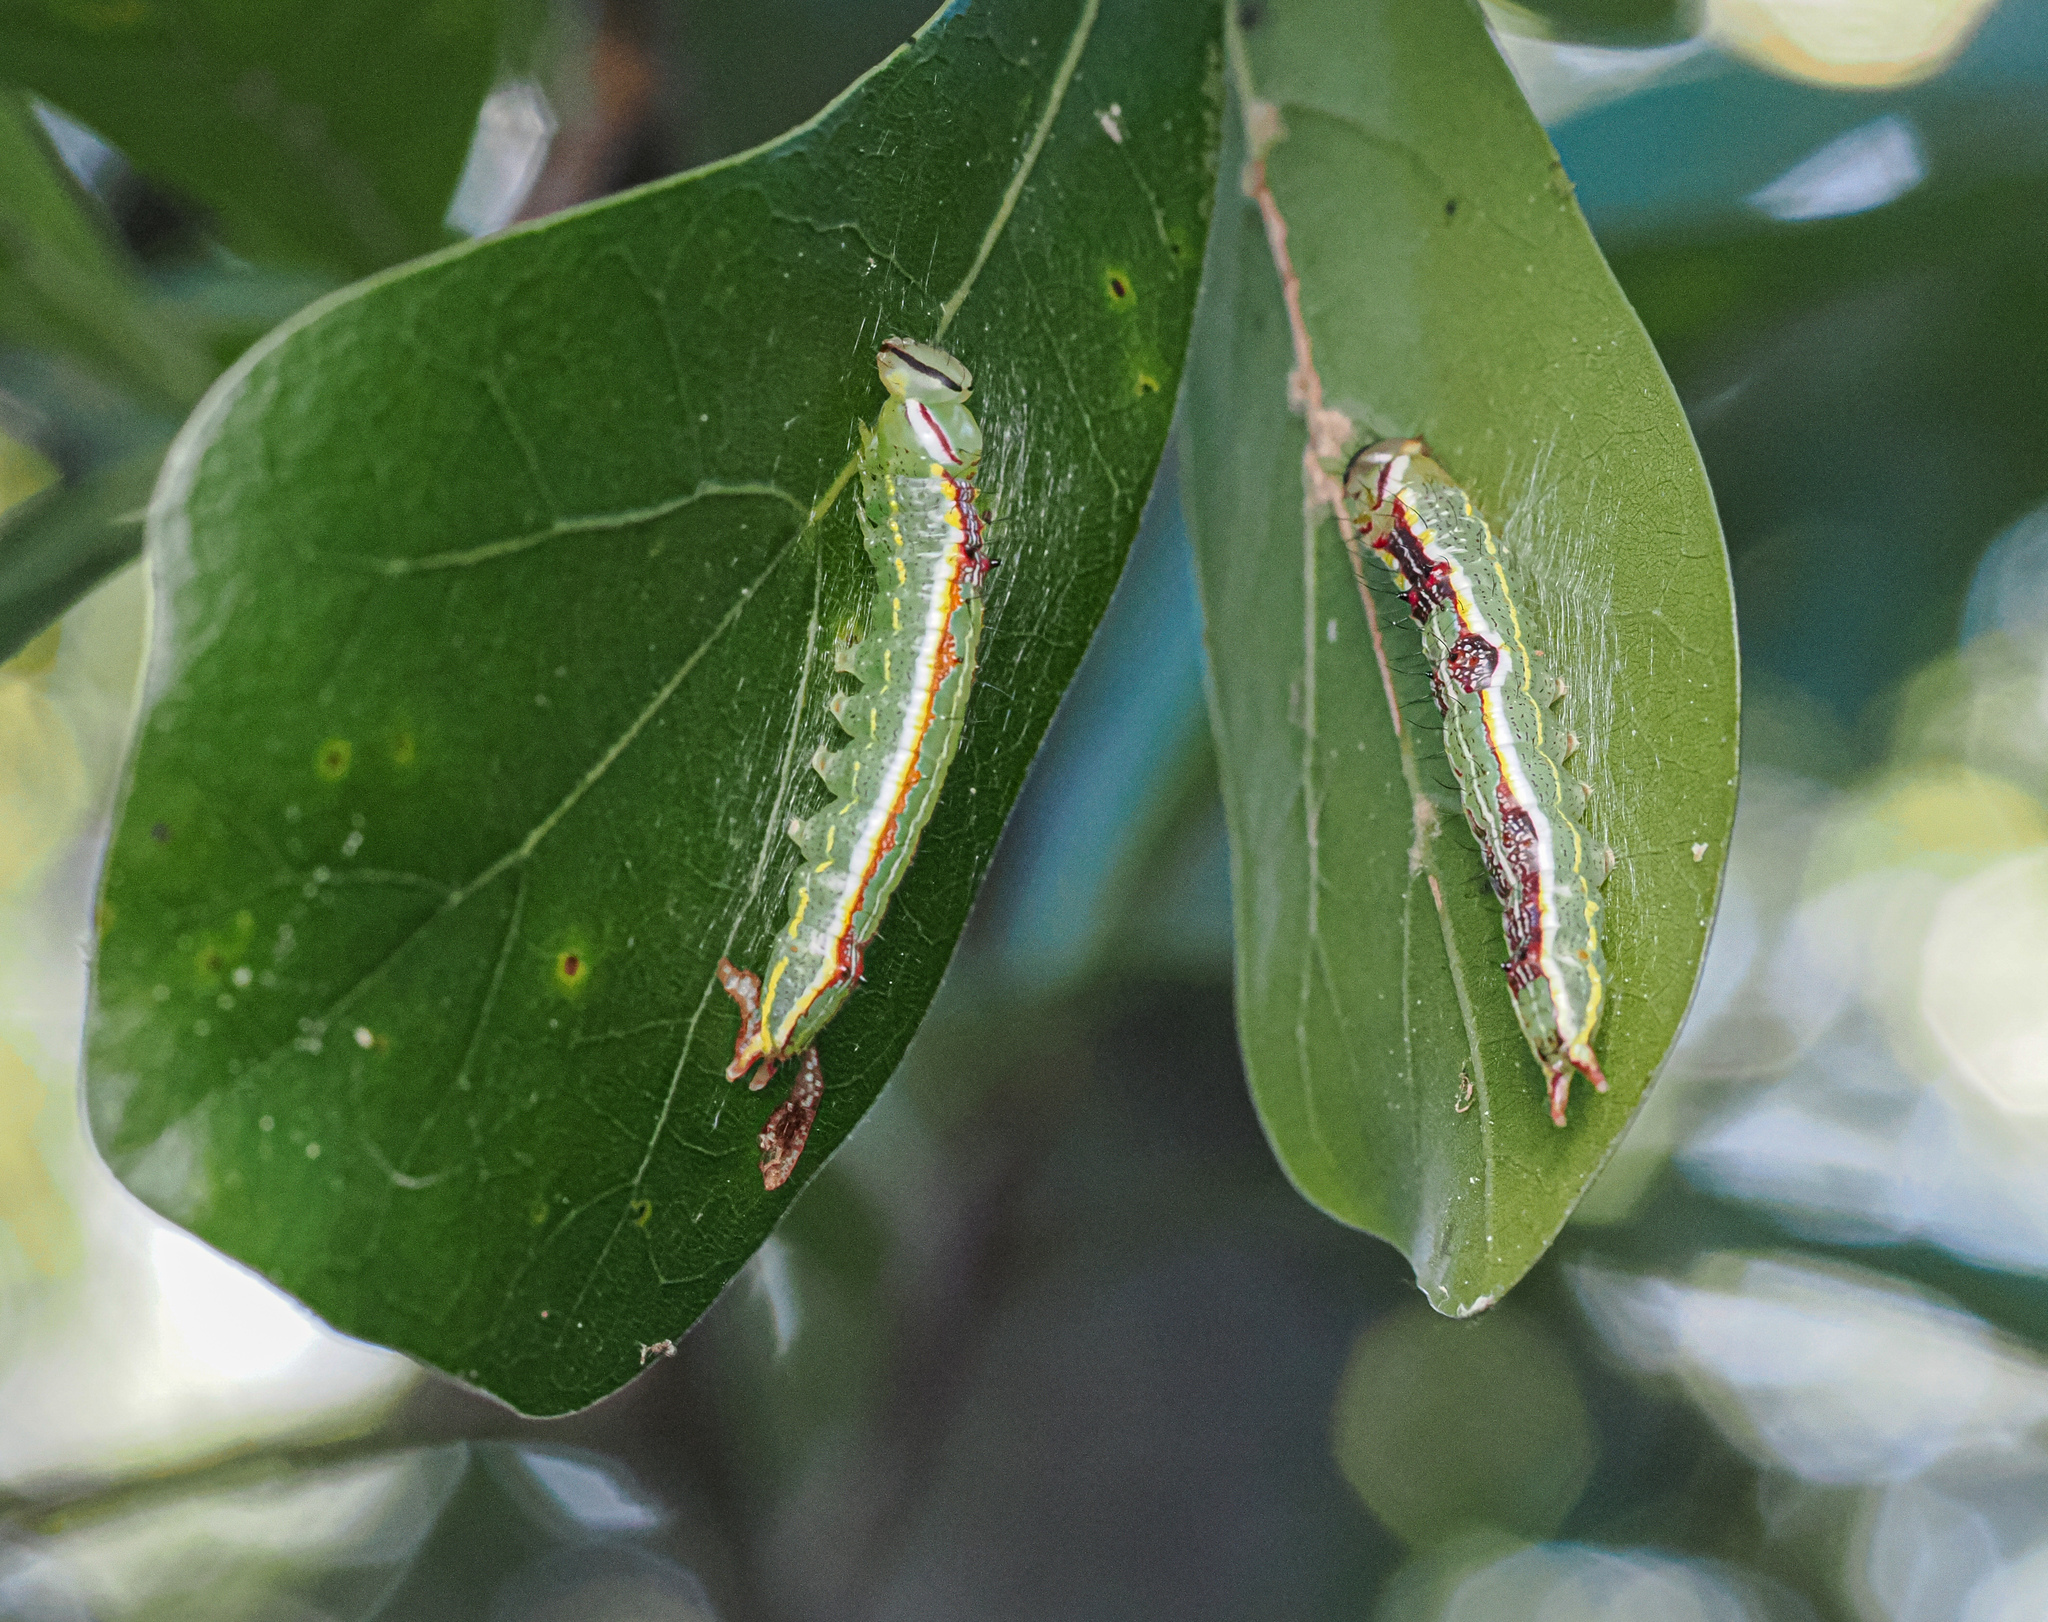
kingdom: Animalia
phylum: Arthropoda
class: Insecta
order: Lepidoptera
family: Notodontidae
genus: Lochmaeus
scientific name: Lochmaeus manteo
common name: Variable oakleaf caterpillar moth
